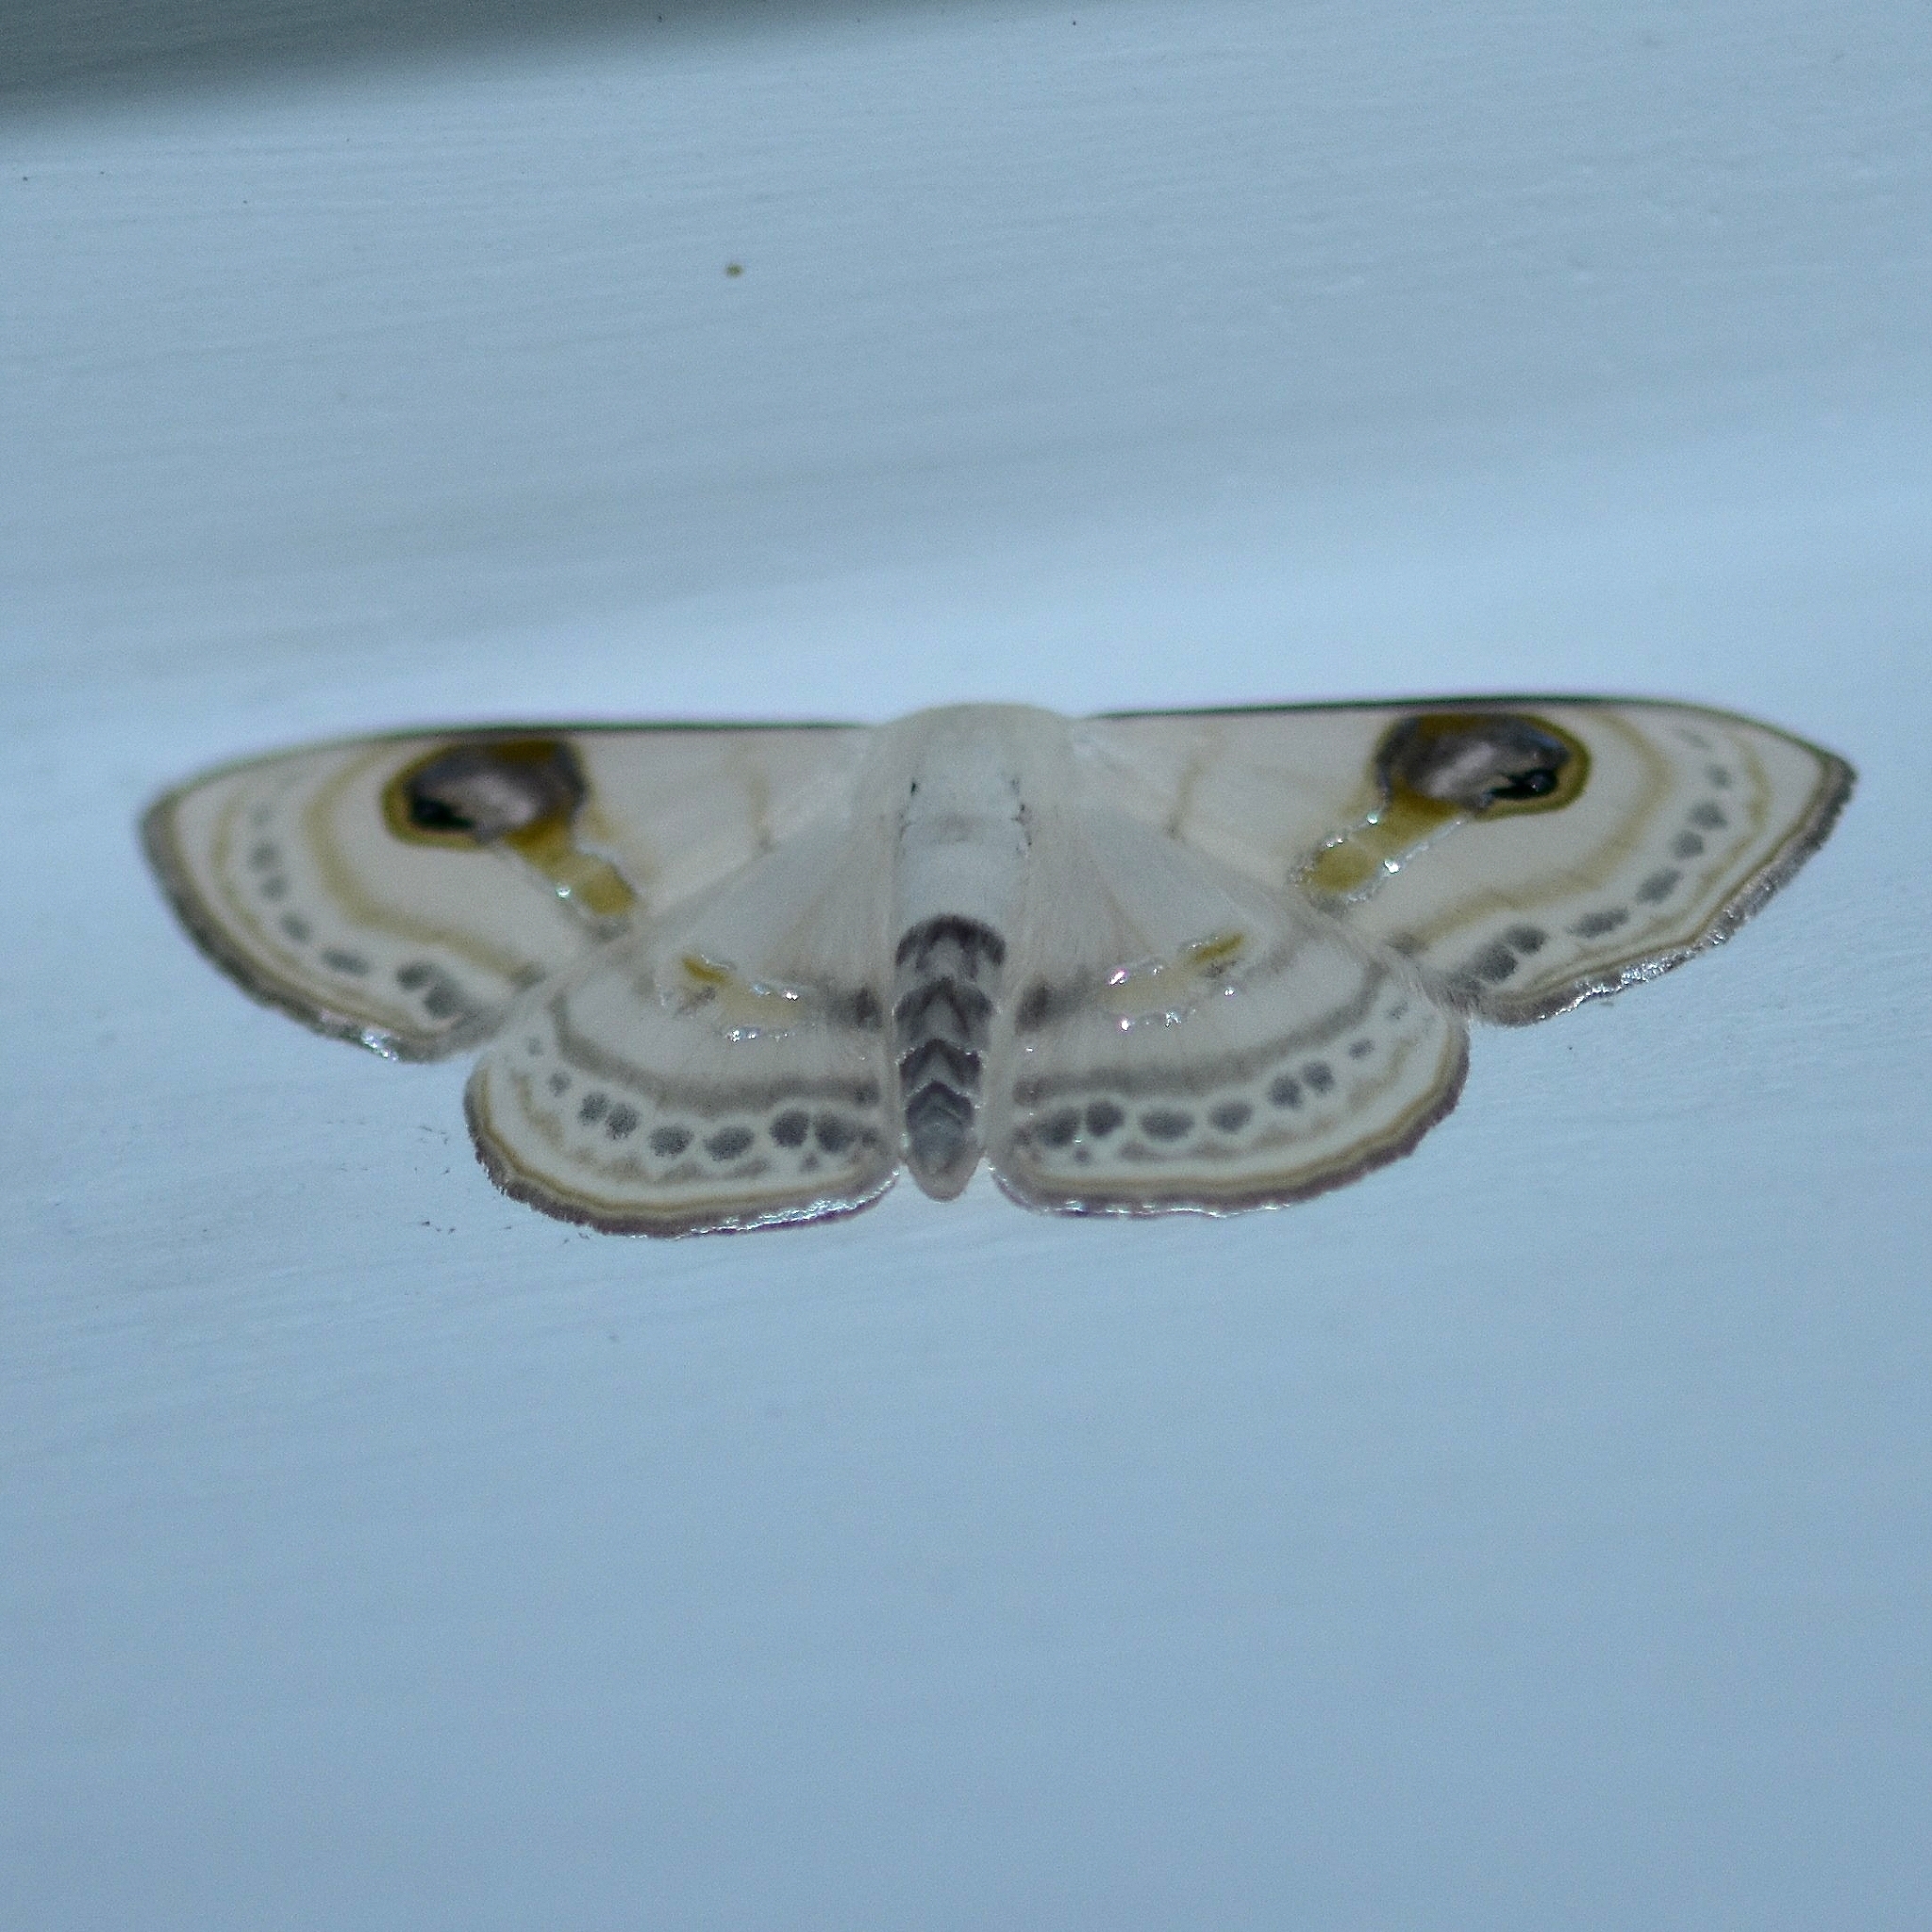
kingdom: Animalia
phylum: Arthropoda
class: Insecta
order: Lepidoptera
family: Geometridae
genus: Problepsis
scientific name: Problepsis apollinaria
